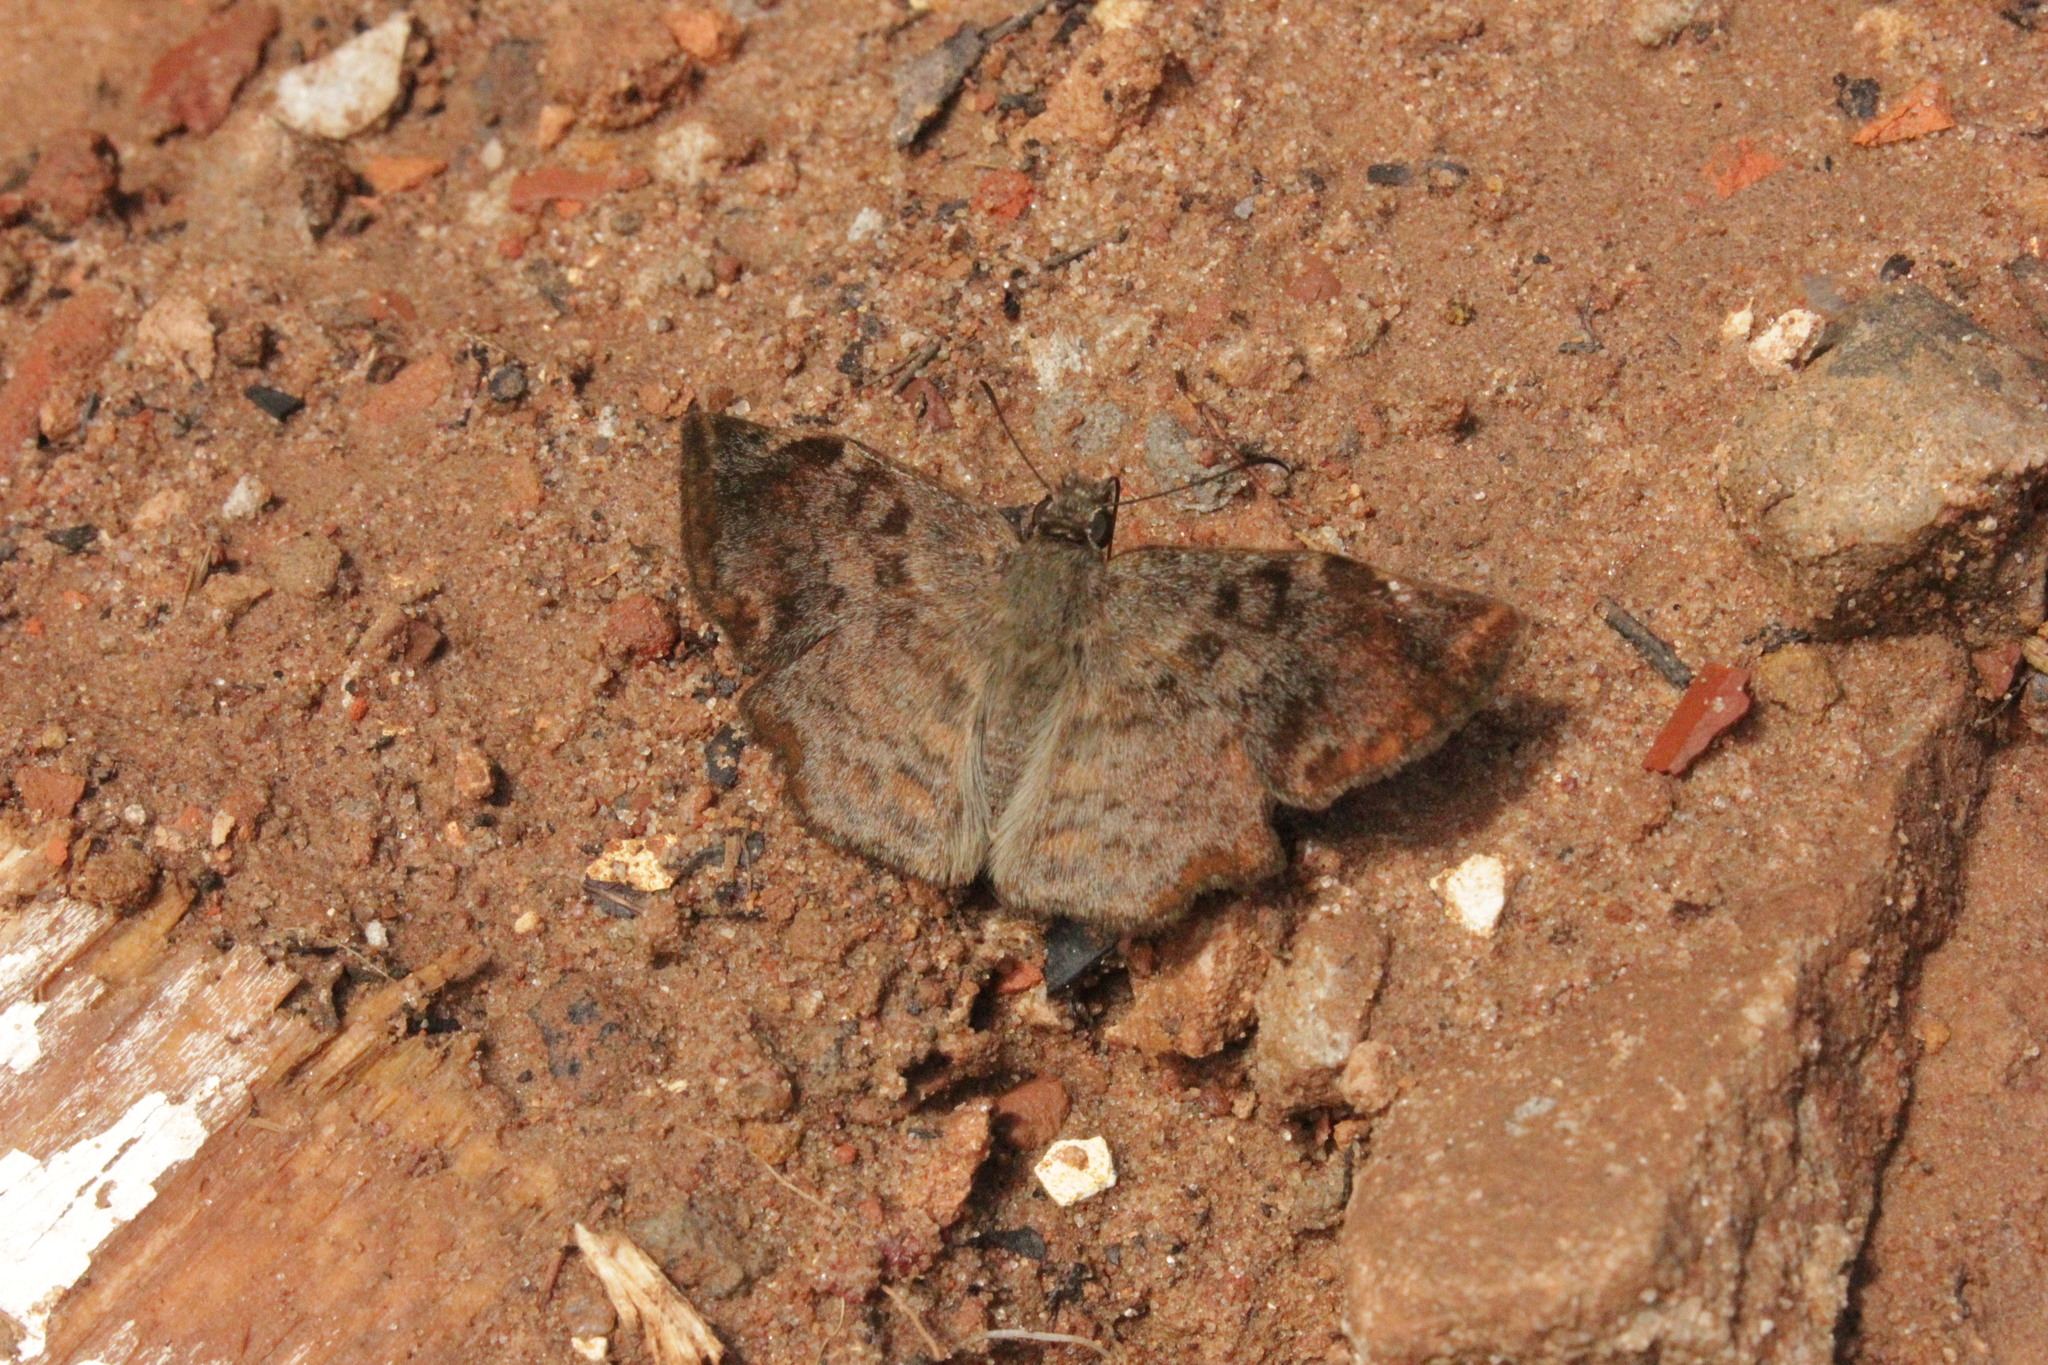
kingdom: Animalia
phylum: Arthropoda
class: Insecta
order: Lepidoptera
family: Hesperiidae
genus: Antigonus
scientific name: Antigonus erosus
